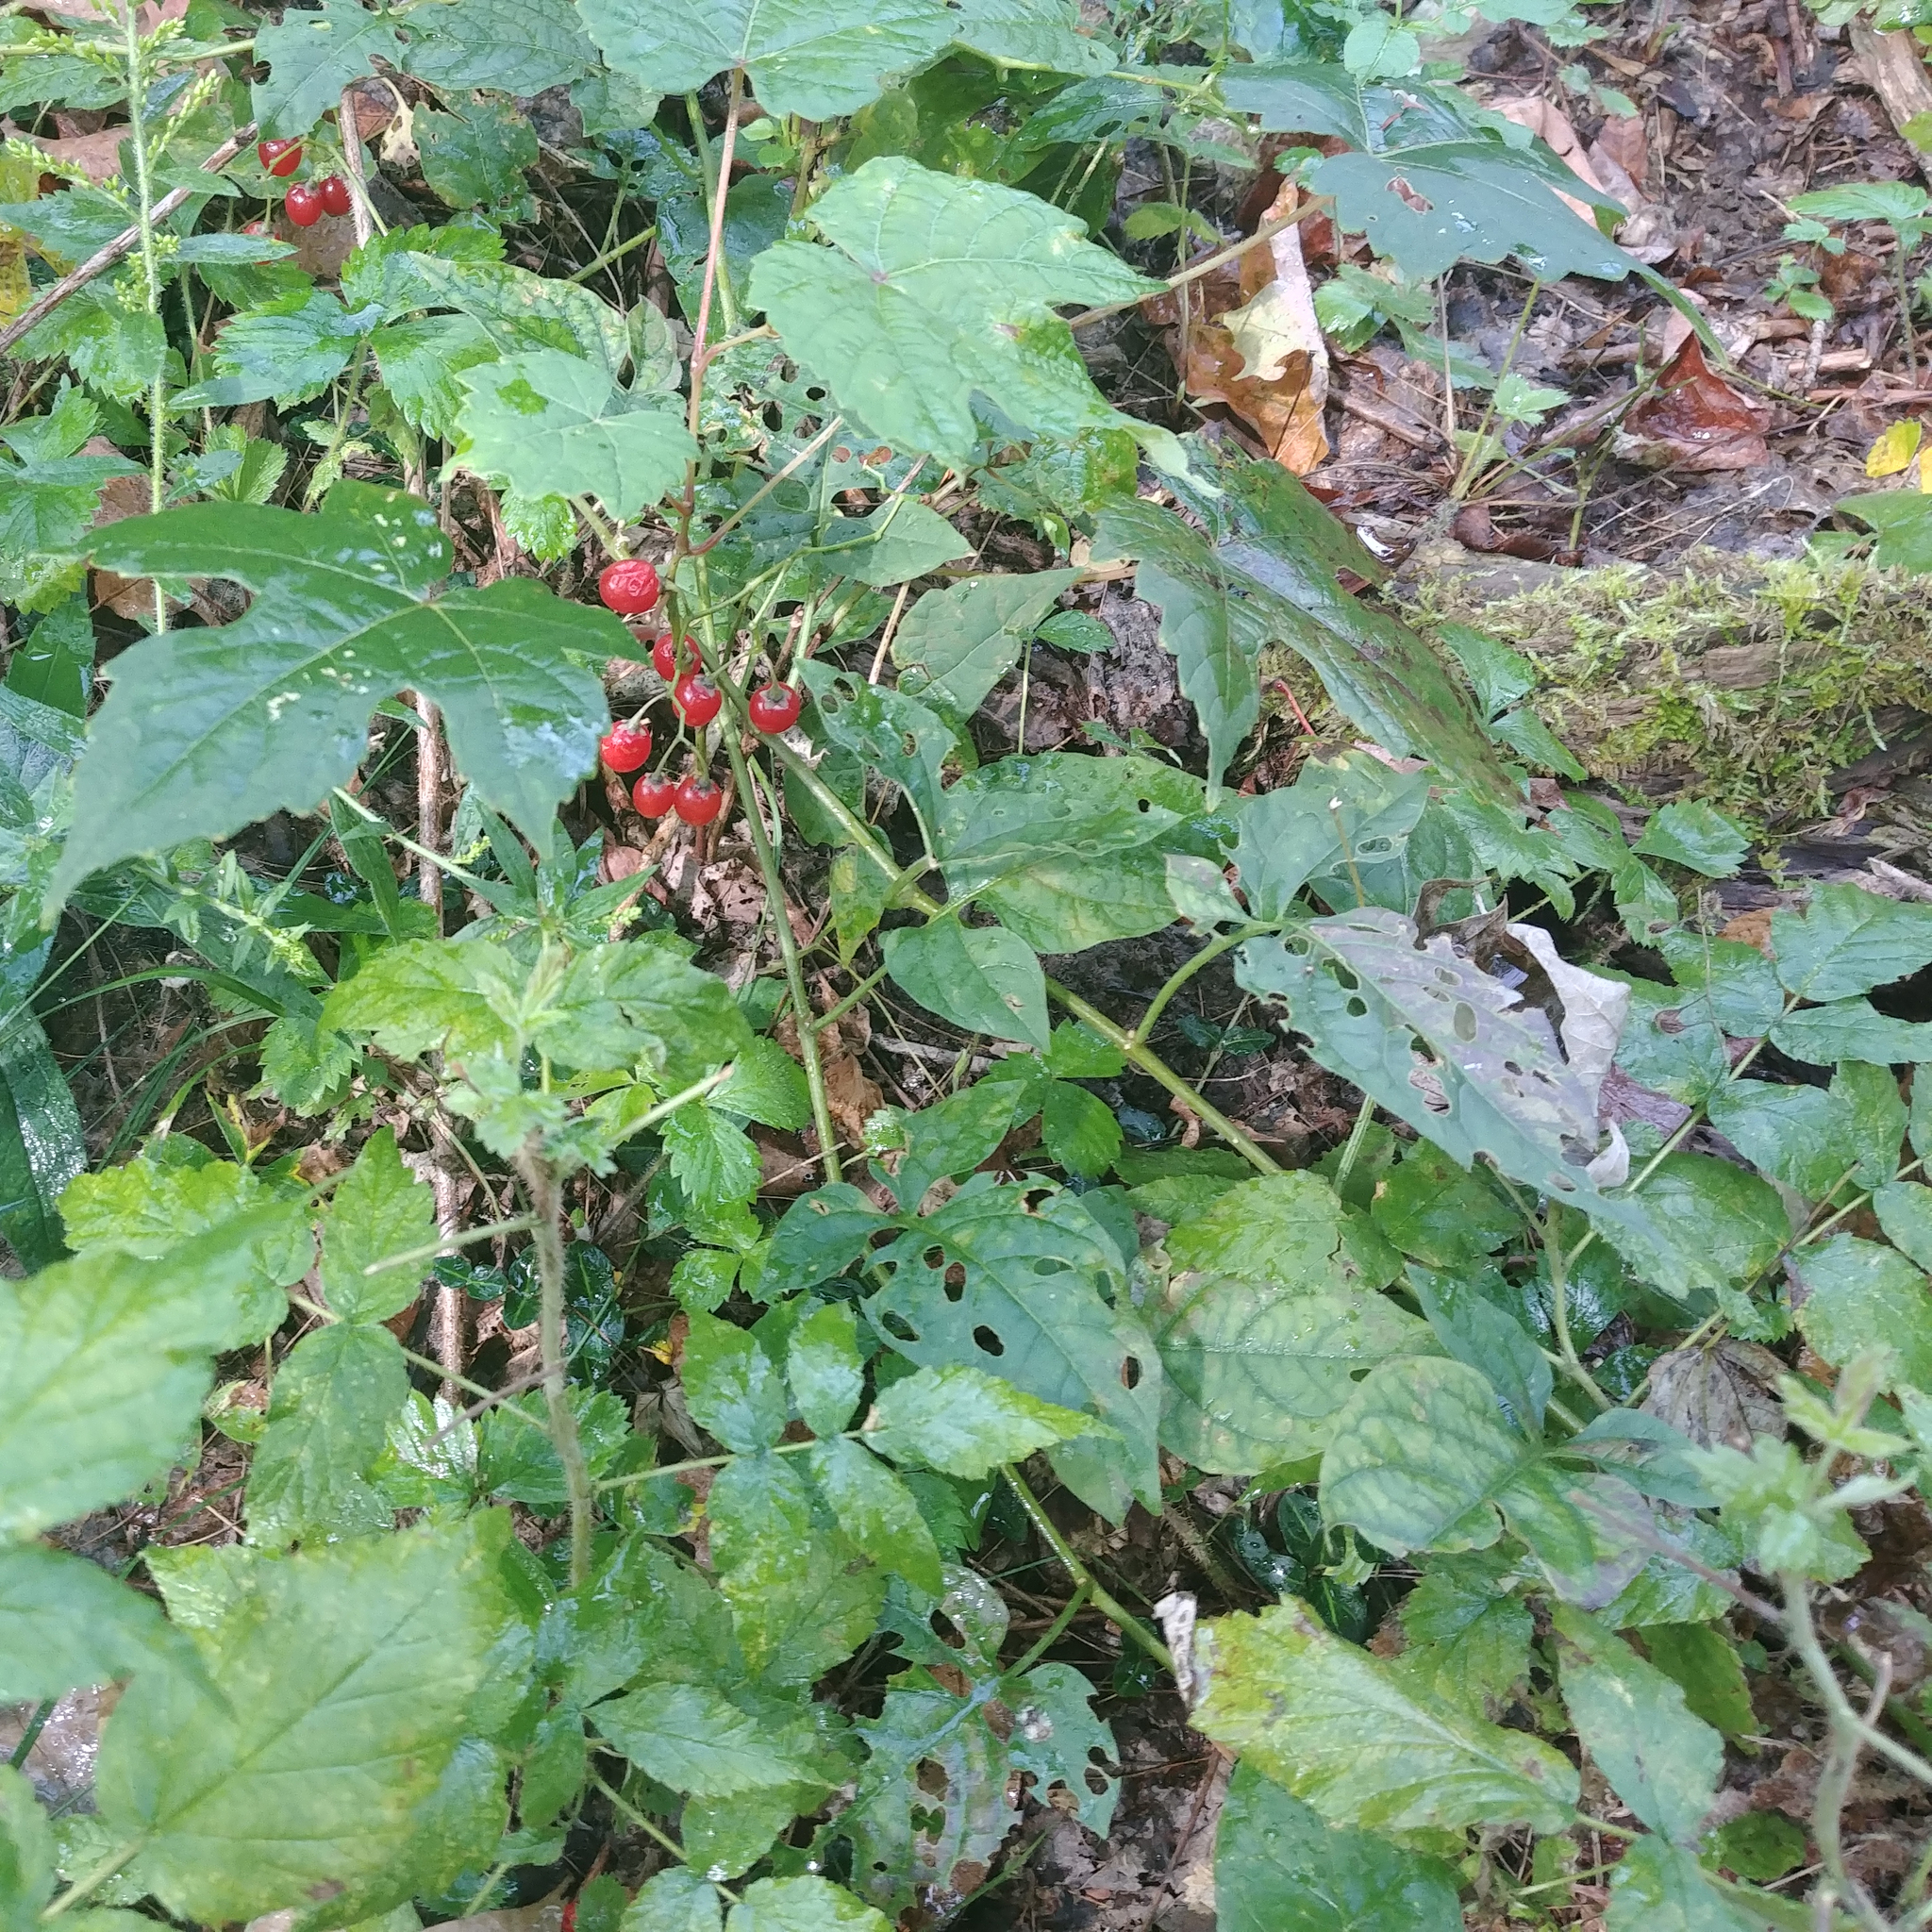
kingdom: Plantae
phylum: Tracheophyta
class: Magnoliopsida
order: Solanales
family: Solanaceae
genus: Solanum
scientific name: Solanum dulcamara
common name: Climbing nightshade
